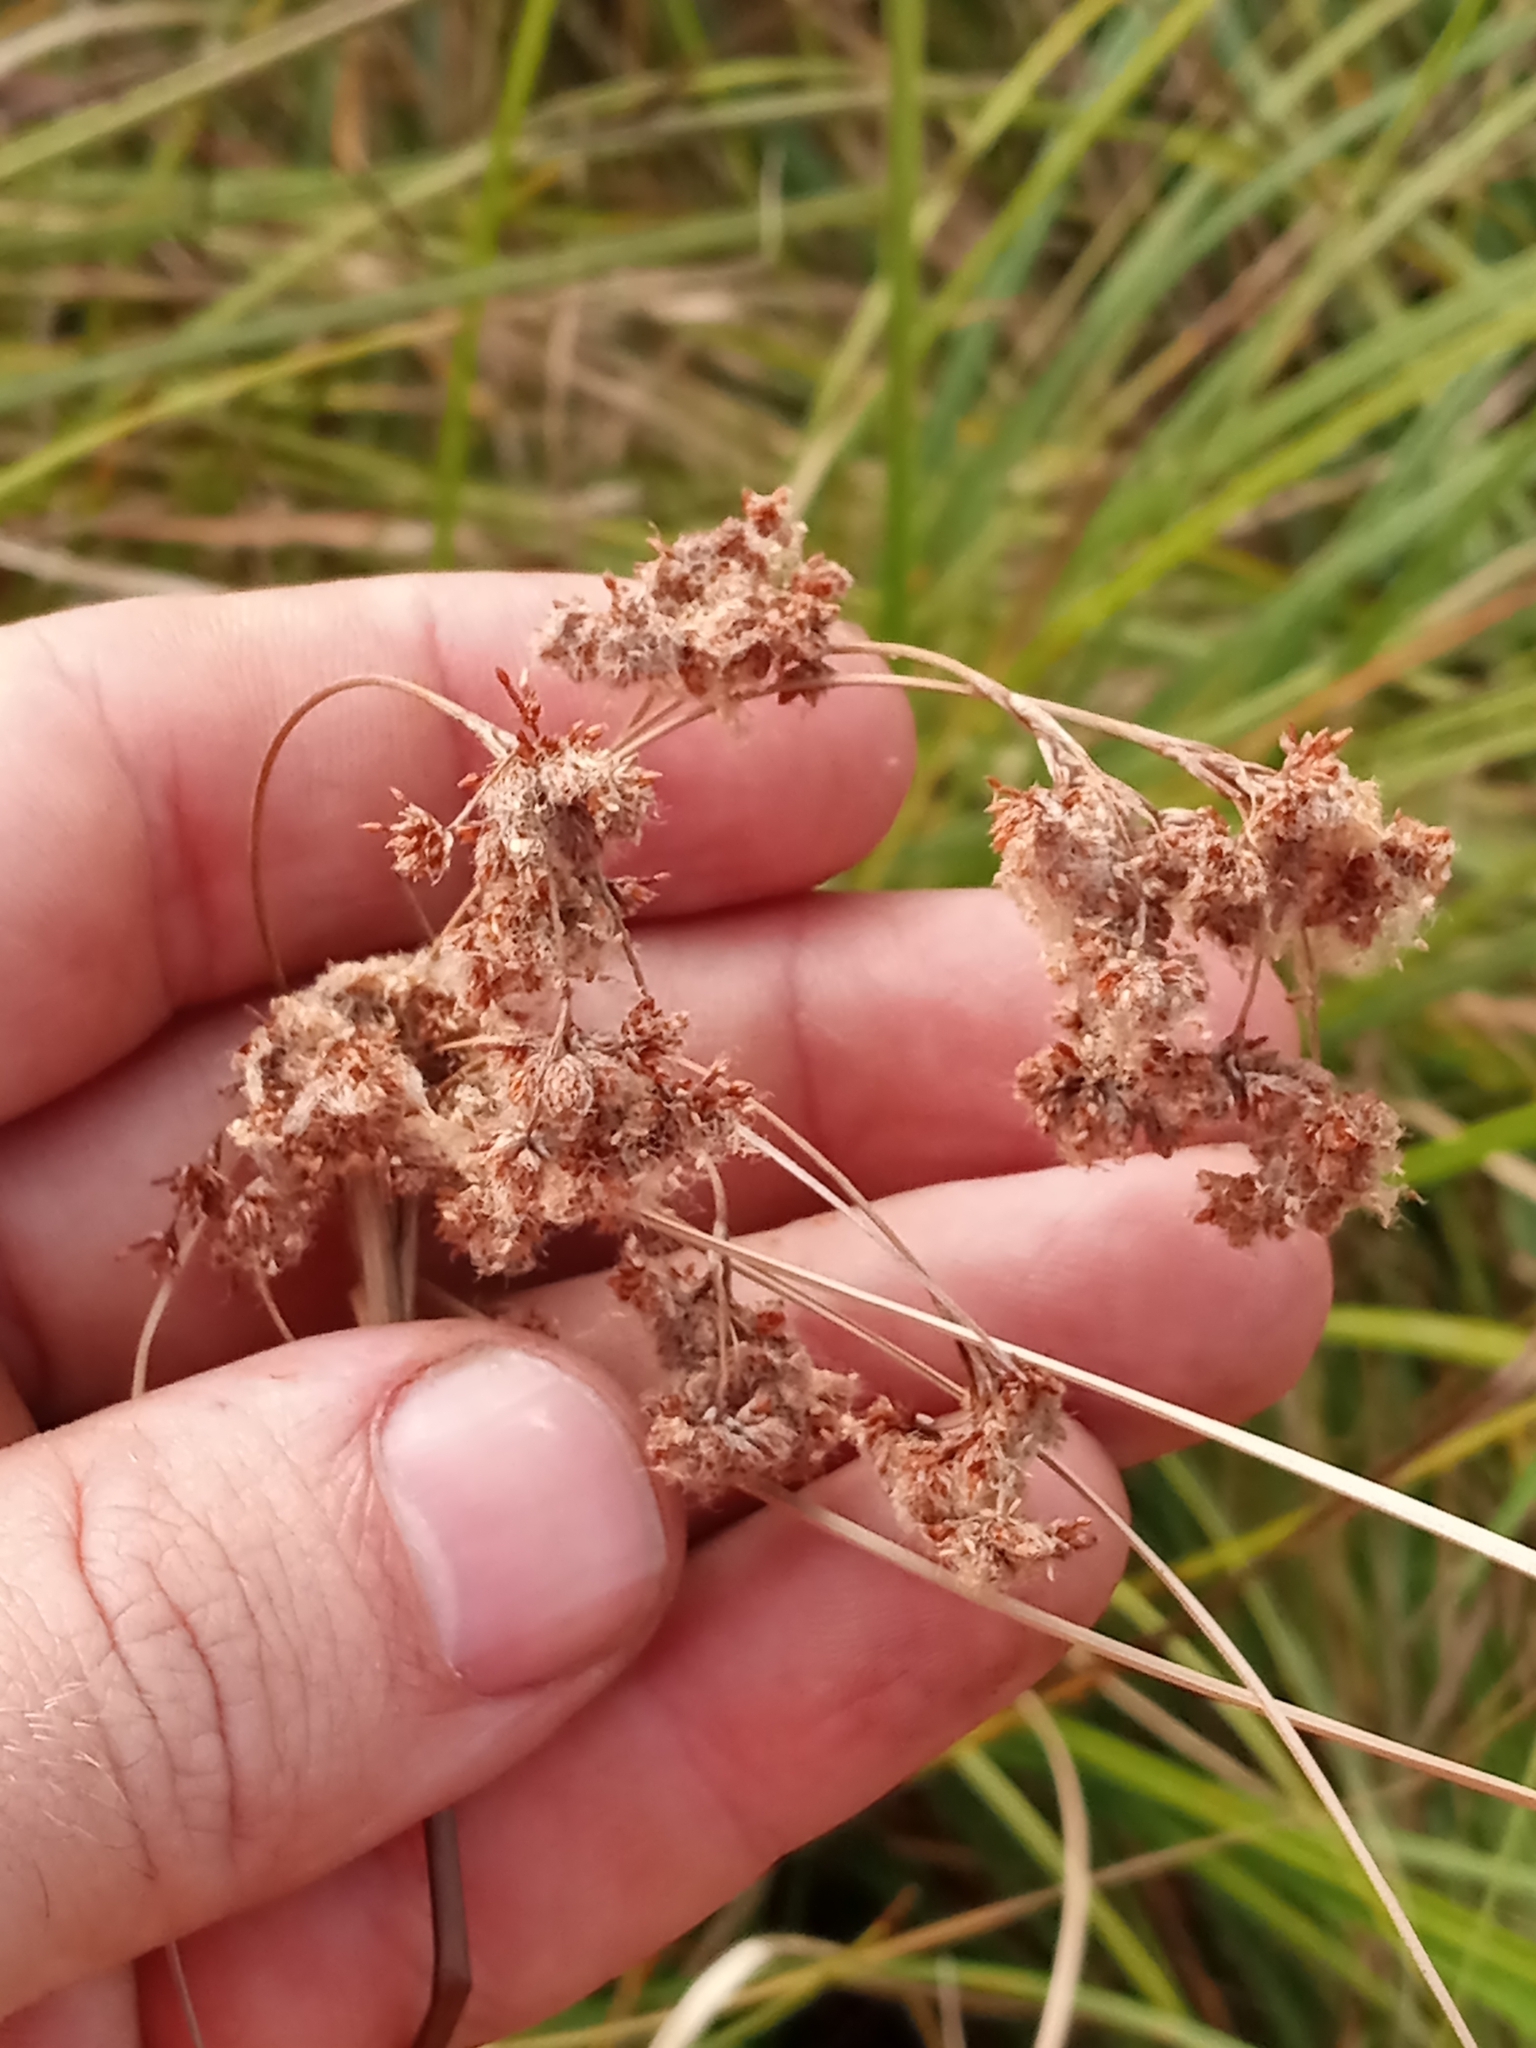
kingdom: Plantae
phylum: Tracheophyta
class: Liliopsida
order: Poales
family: Cyperaceae
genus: Scirpus
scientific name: Scirpus cyperinus
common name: Black-sheathed bulrush
